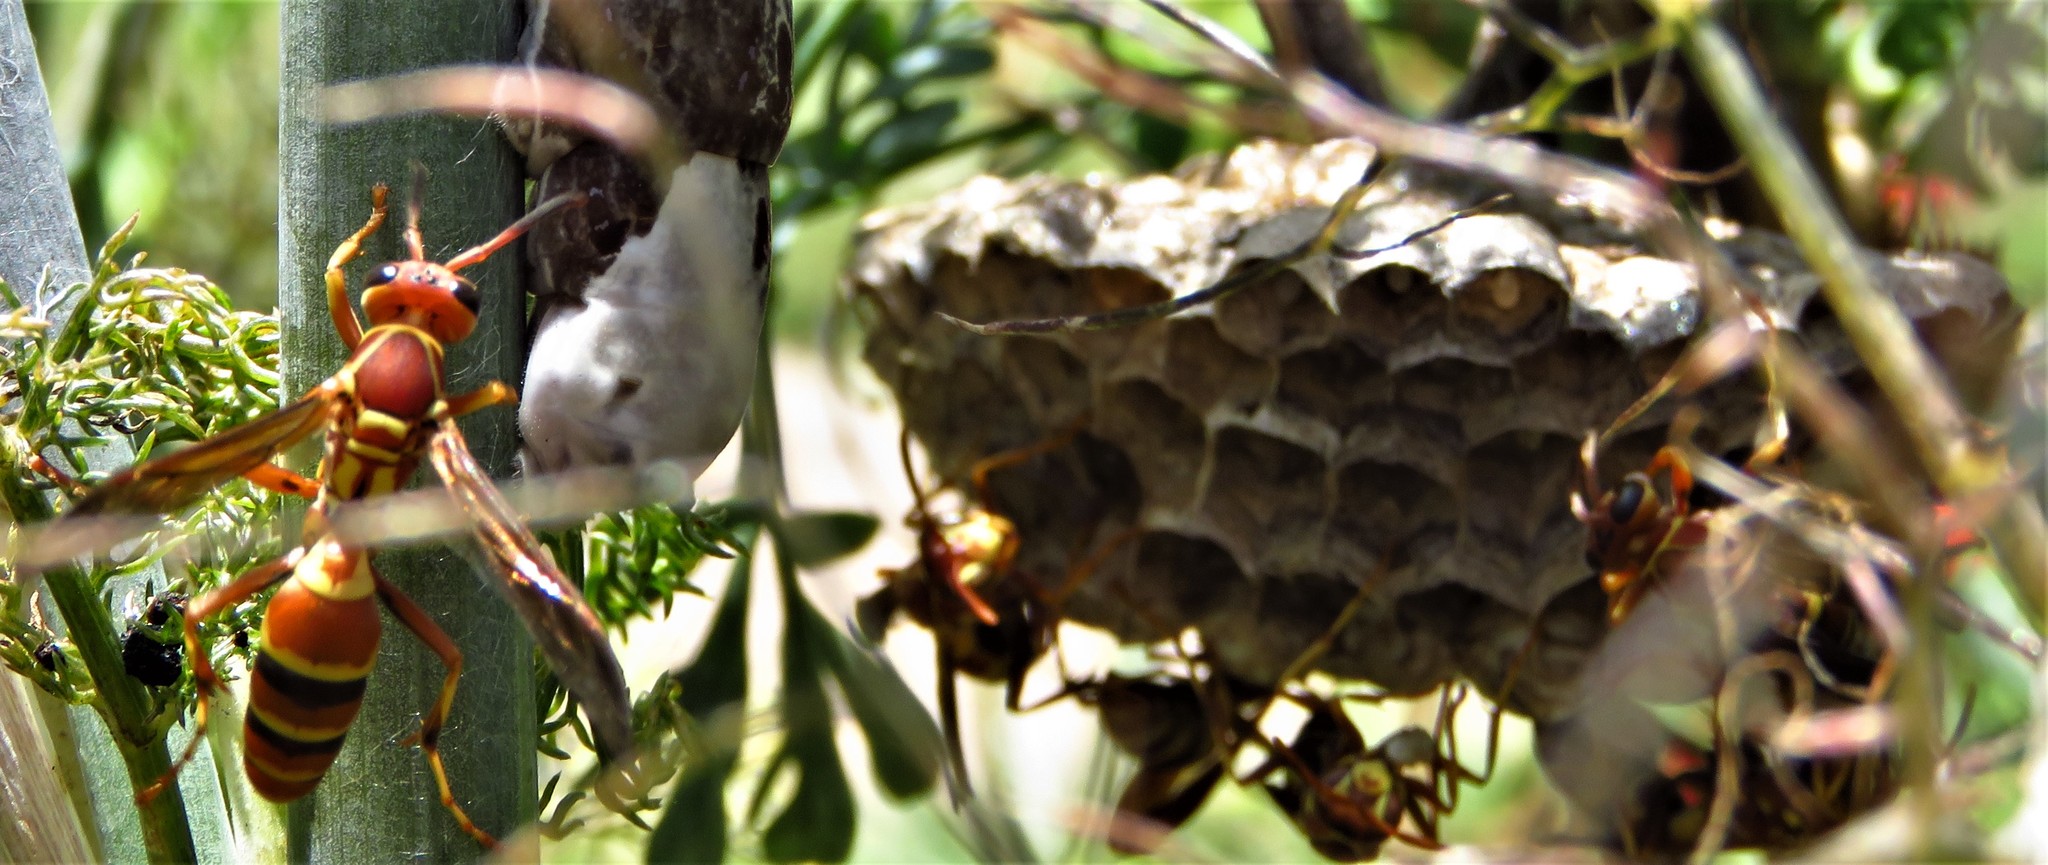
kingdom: Animalia
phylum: Arthropoda
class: Insecta
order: Hymenoptera
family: Eumenidae
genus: Polistes
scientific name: Polistes dorsalis
